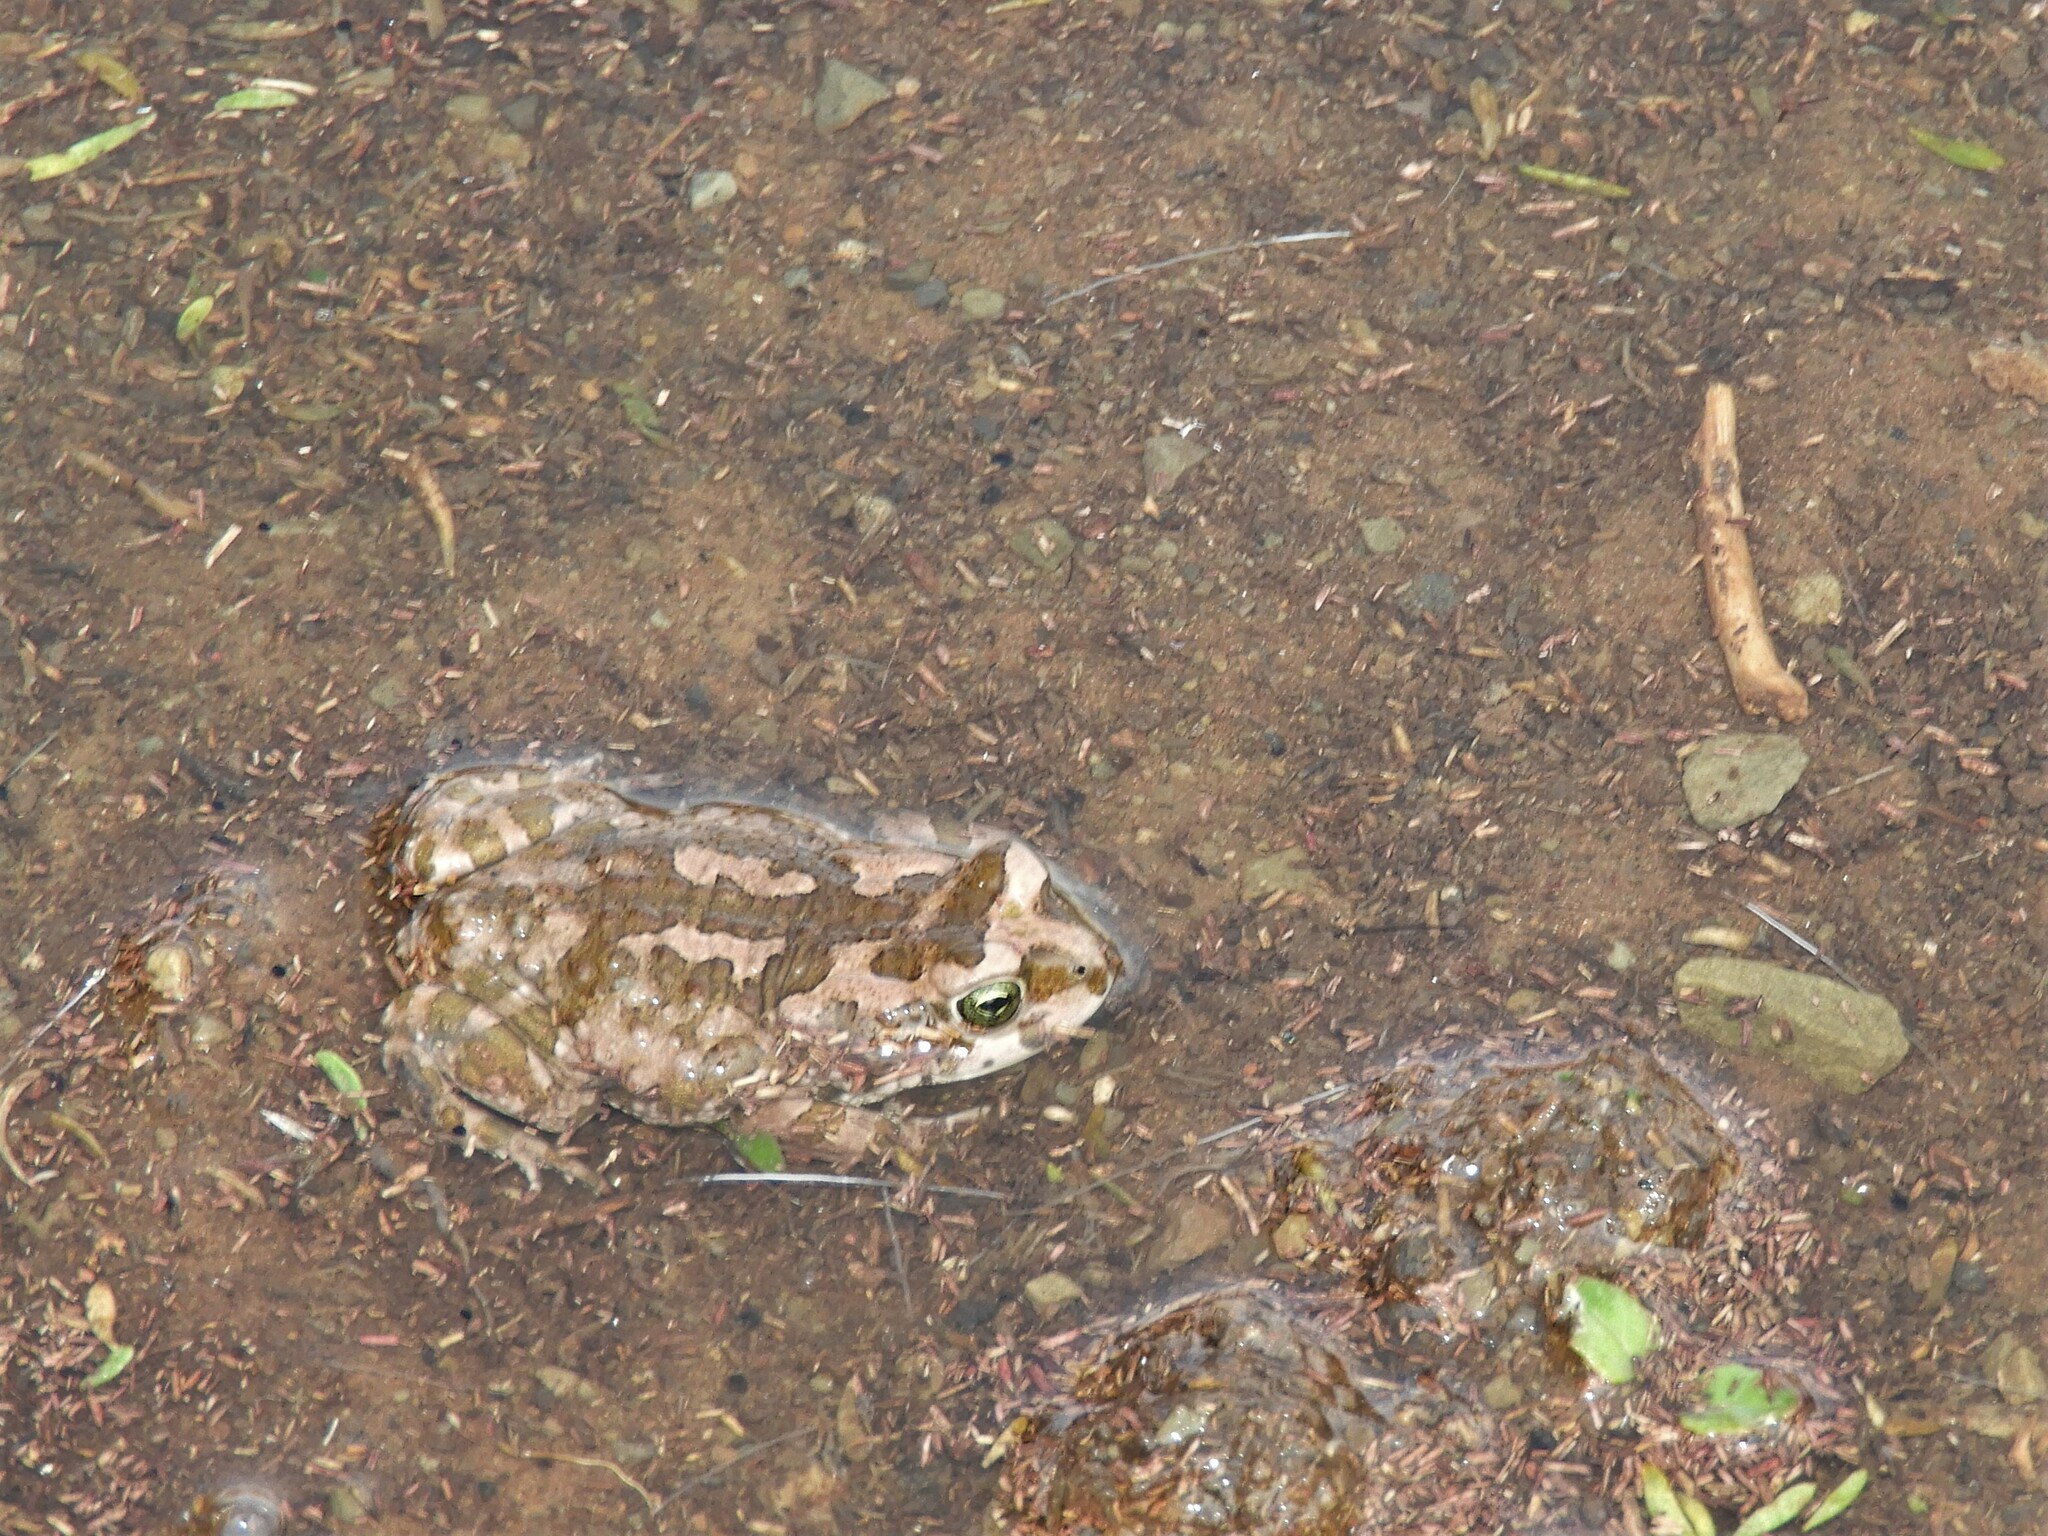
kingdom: Animalia
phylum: Chordata
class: Amphibia
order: Anura
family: Bufonidae
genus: Vandijkophrynus
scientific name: Vandijkophrynus gariepensis
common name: Gariep toad
